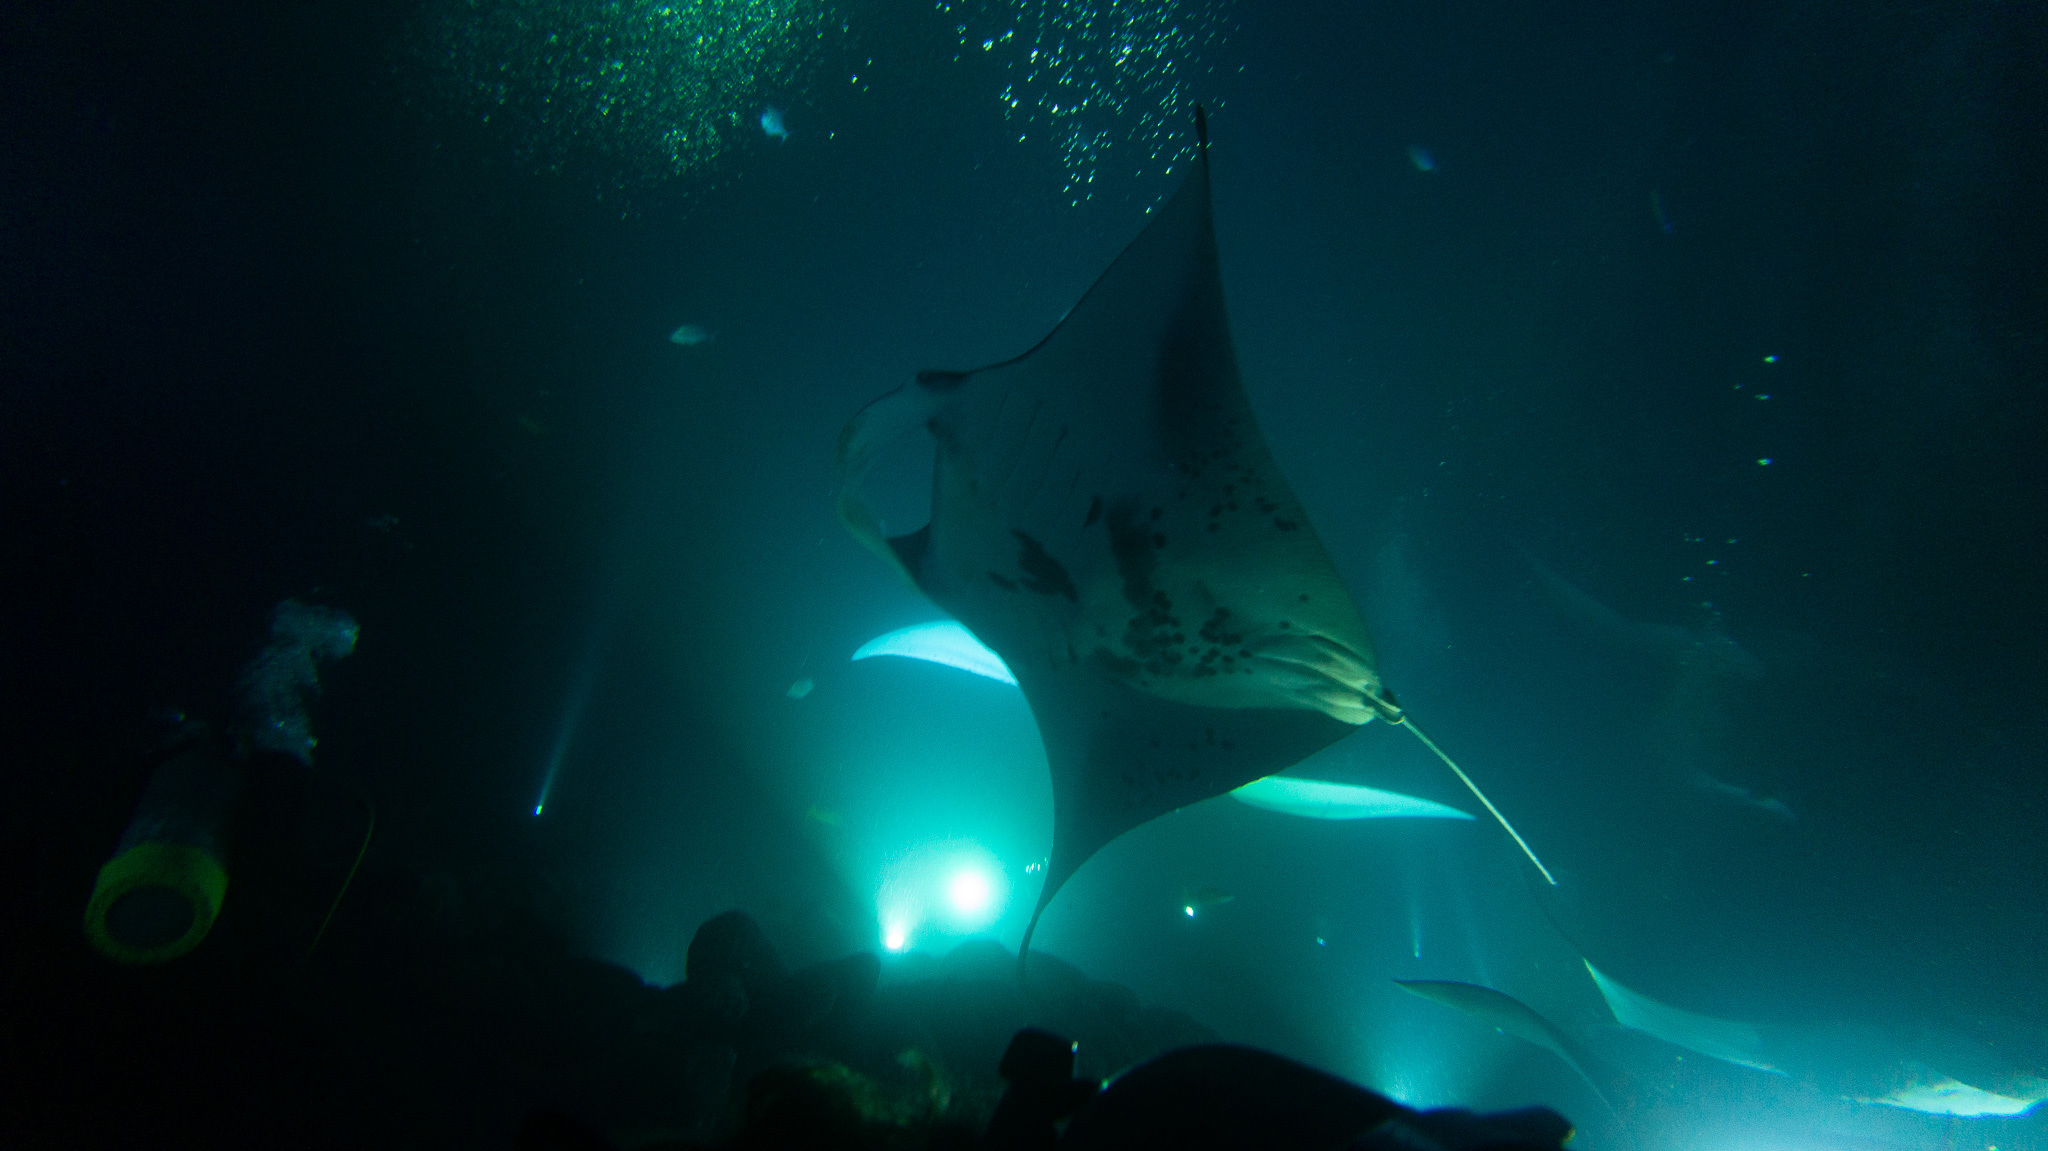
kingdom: Animalia
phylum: Chordata
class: Elasmobranchii
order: Myliobatiformes
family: Myliobatidae
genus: Mobula
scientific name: Mobula alfredi
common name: Reef manta ray
